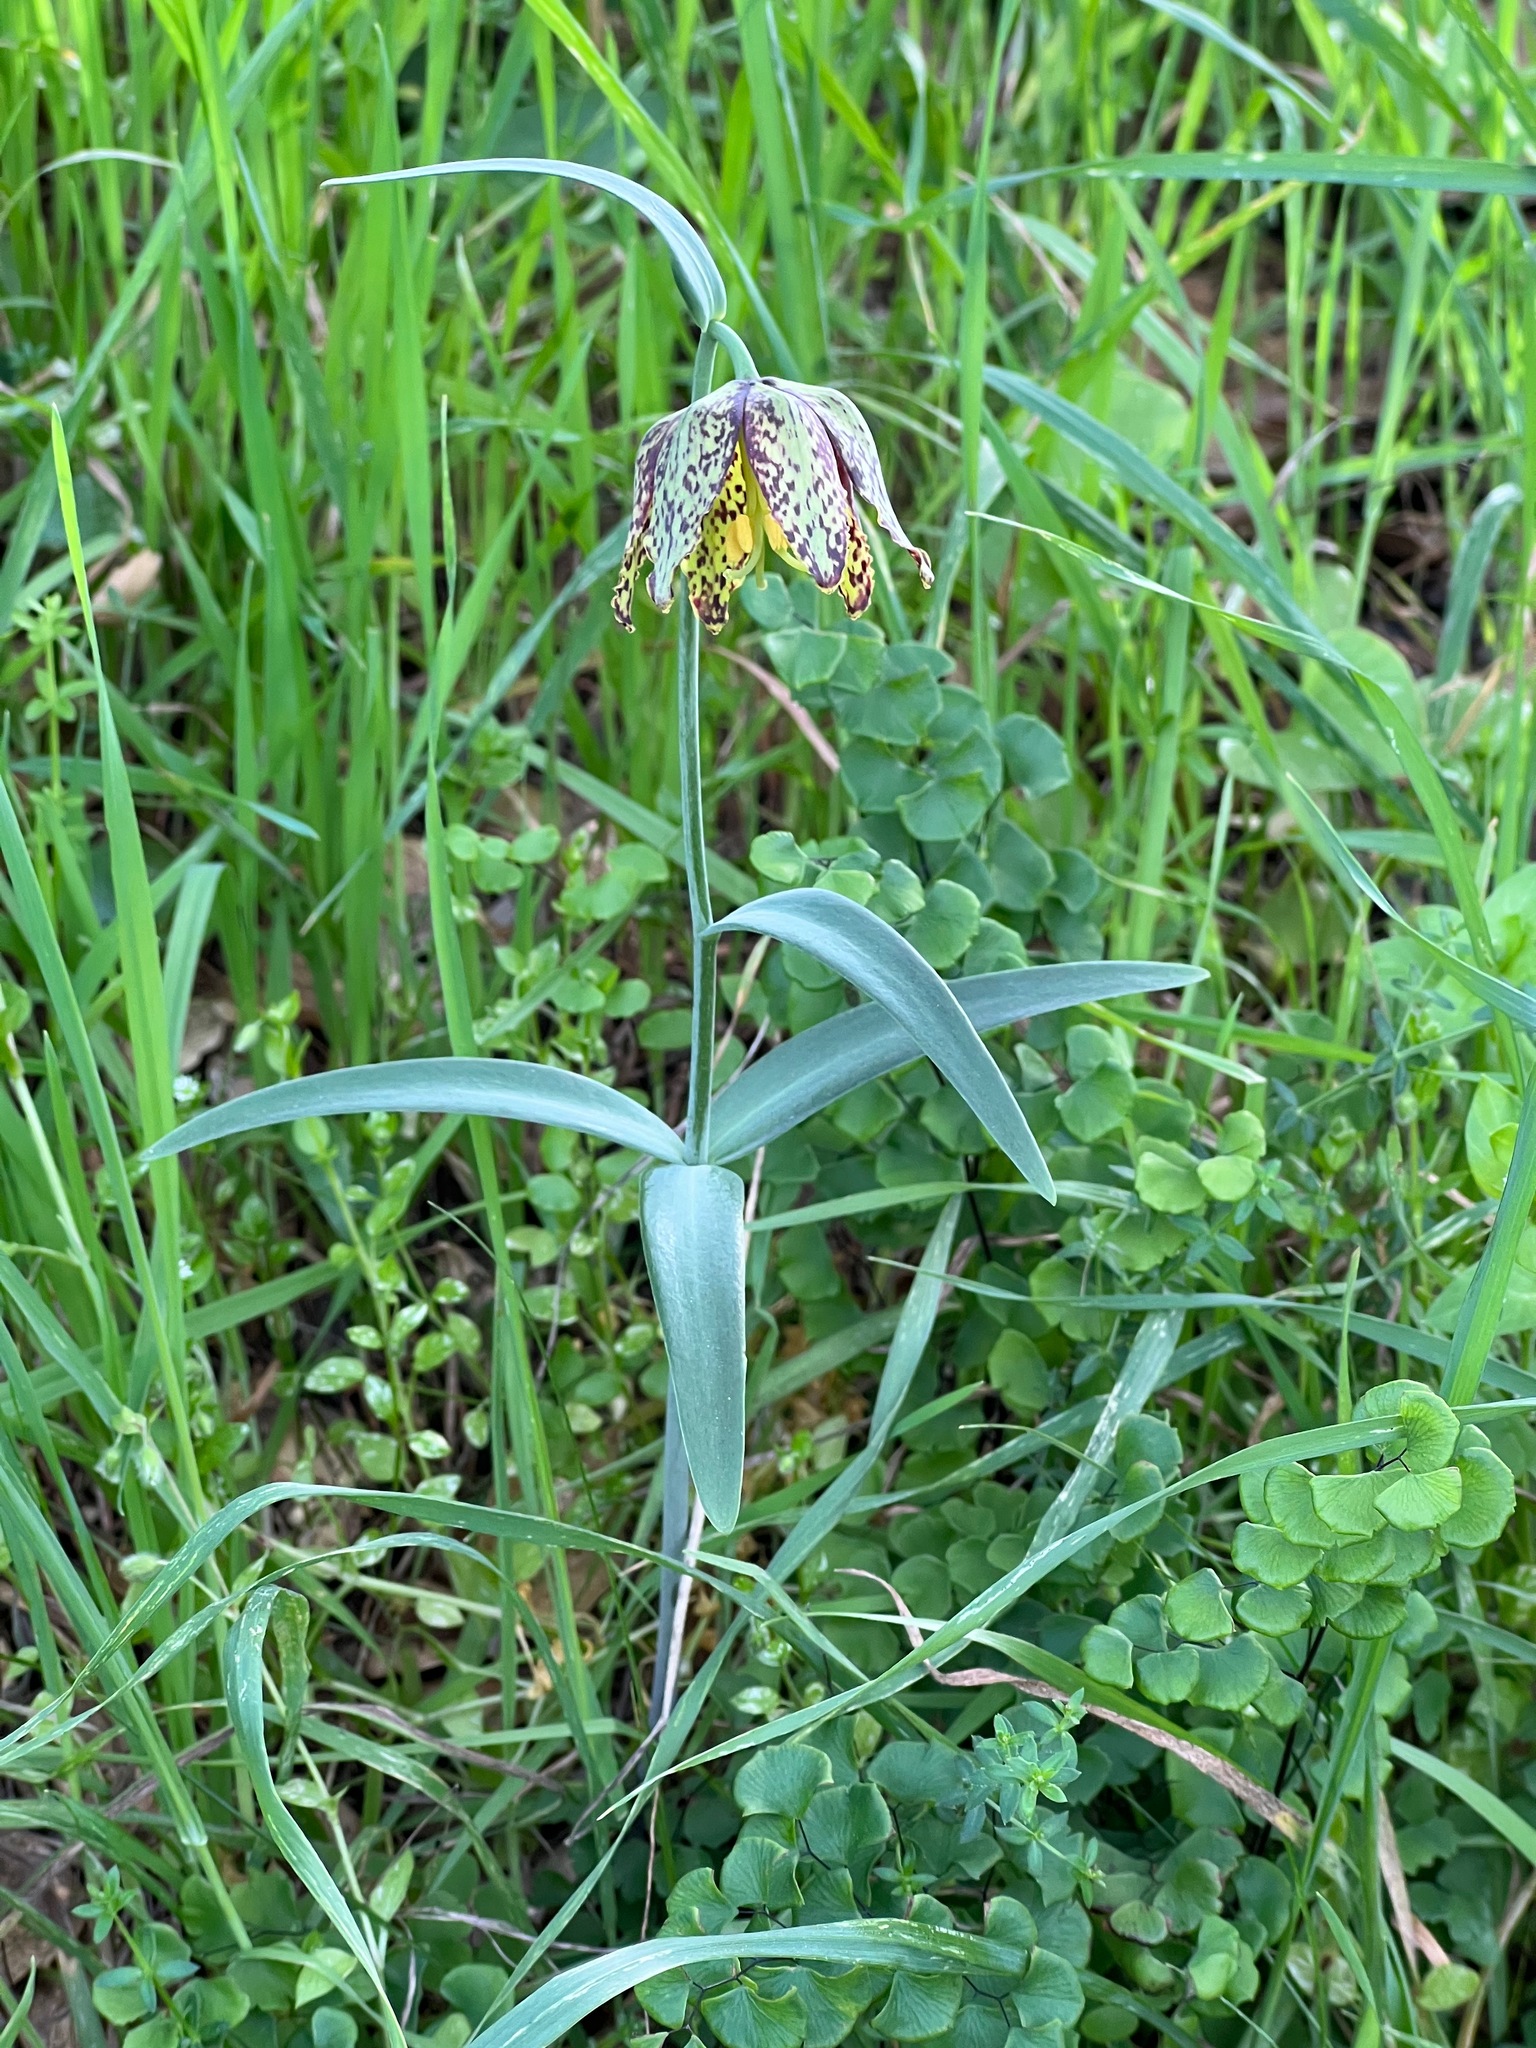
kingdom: Plantae
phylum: Tracheophyta
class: Liliopsida
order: Liliales
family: Liliaceae
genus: Fritillaria
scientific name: Fritillaria affinis
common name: Ojai fritillary
